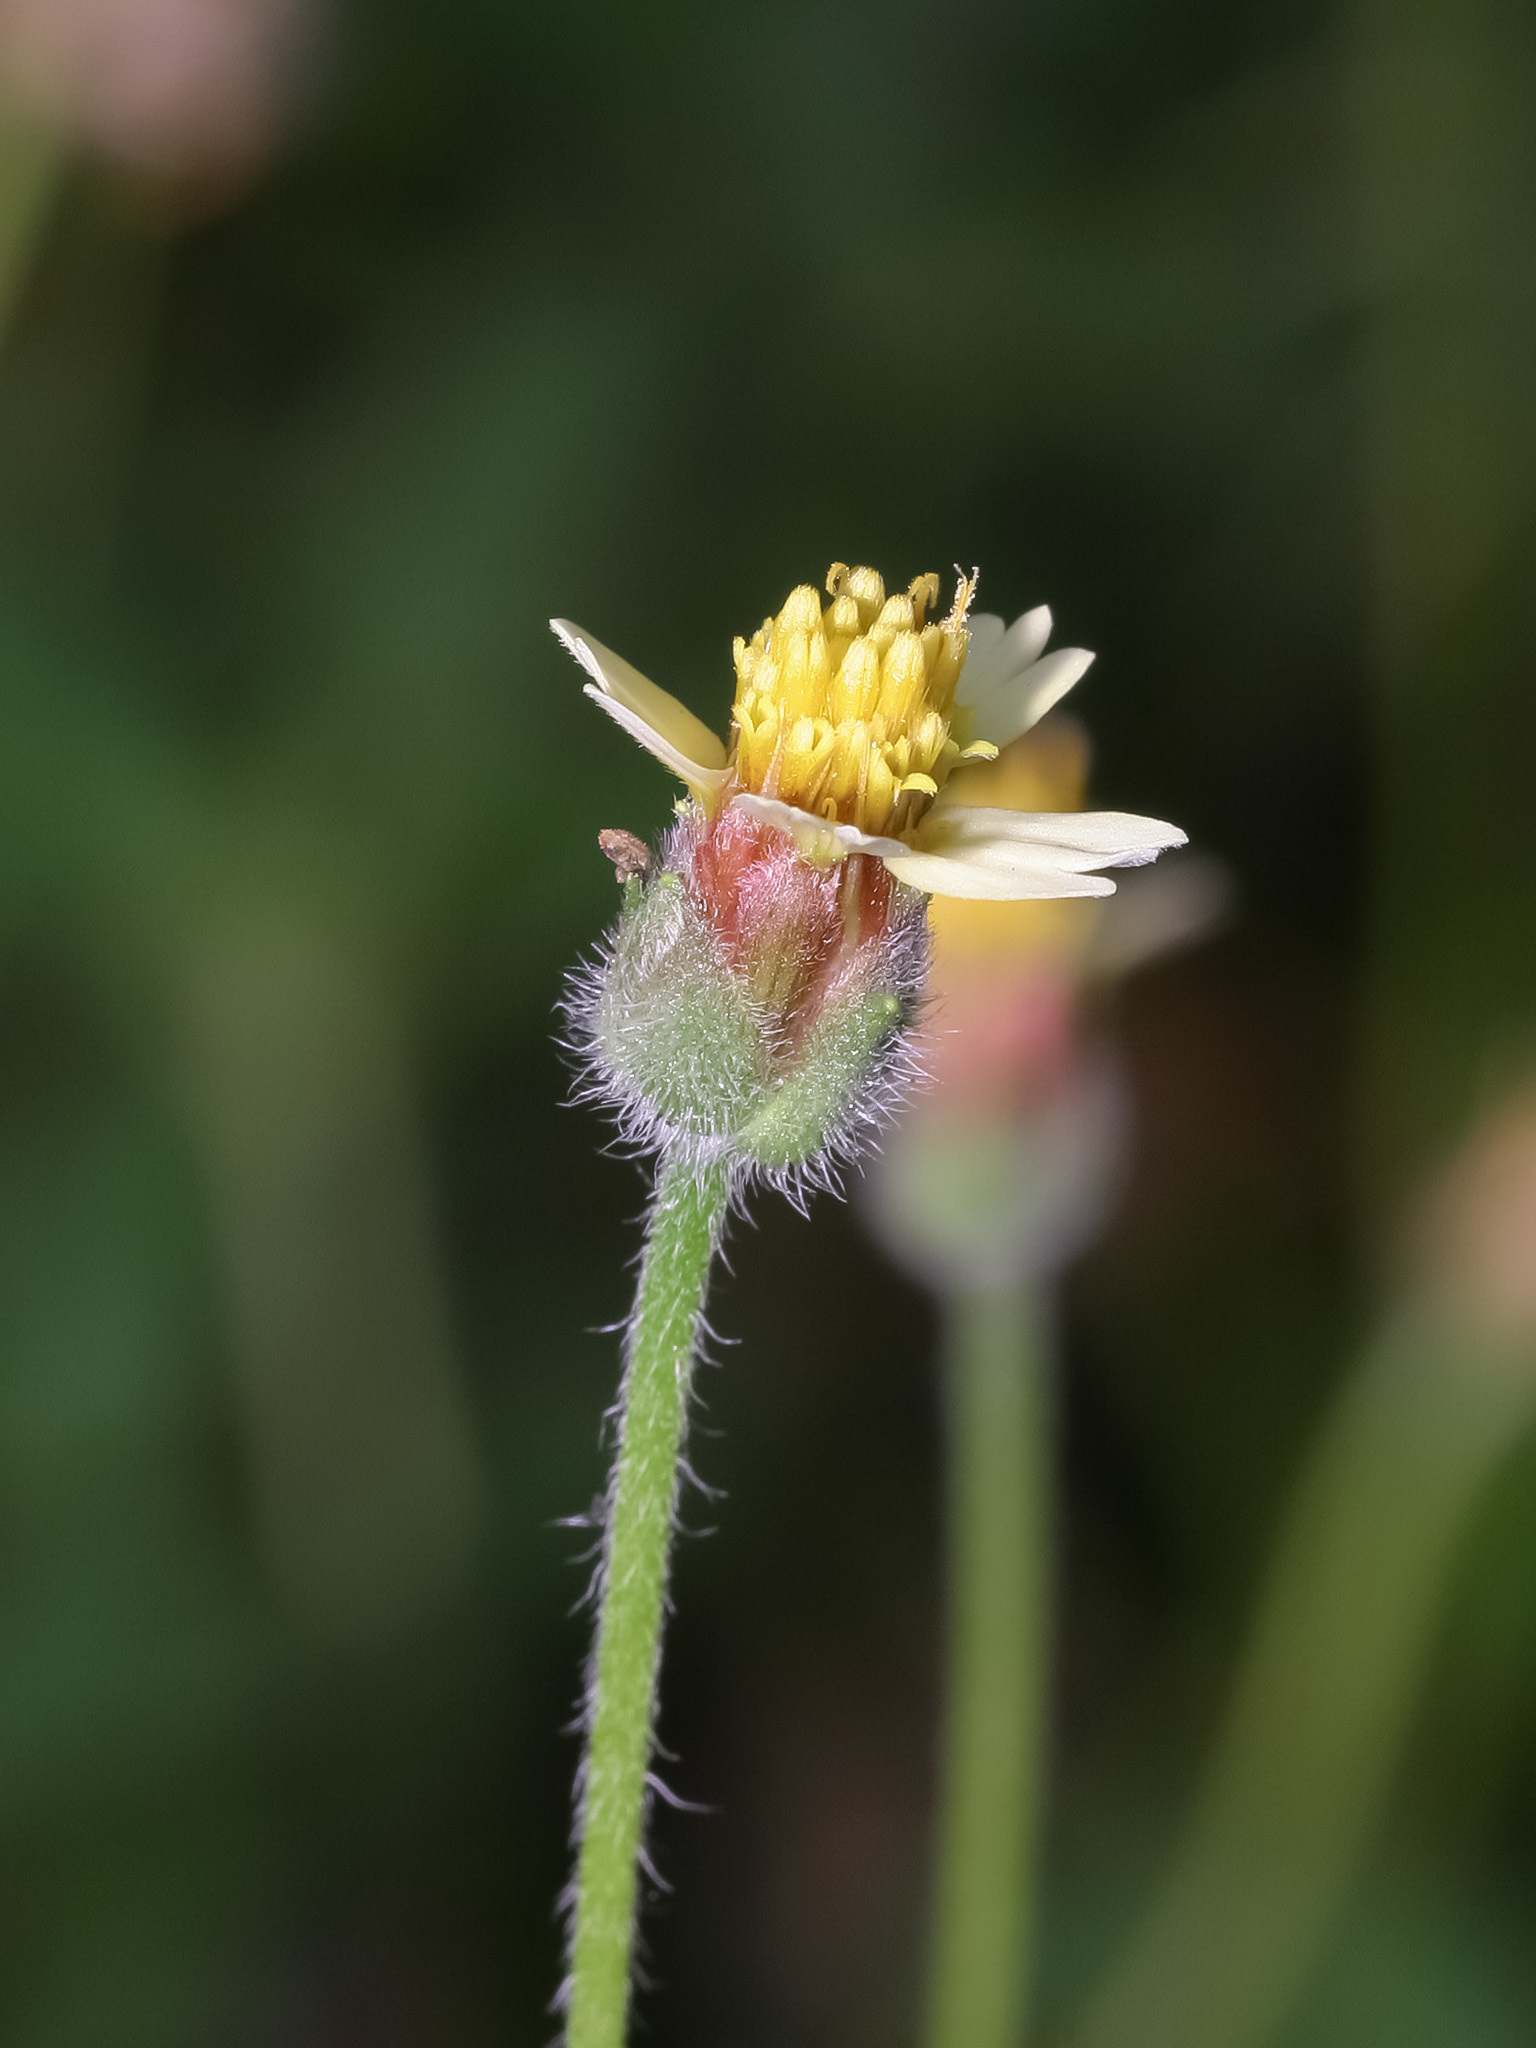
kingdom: Plantae
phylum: Tracheophyta
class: Magnoliopsida
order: Asterales
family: Asteraceae
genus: Tridax
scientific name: Tridax procumbens
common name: Coatbuttons
